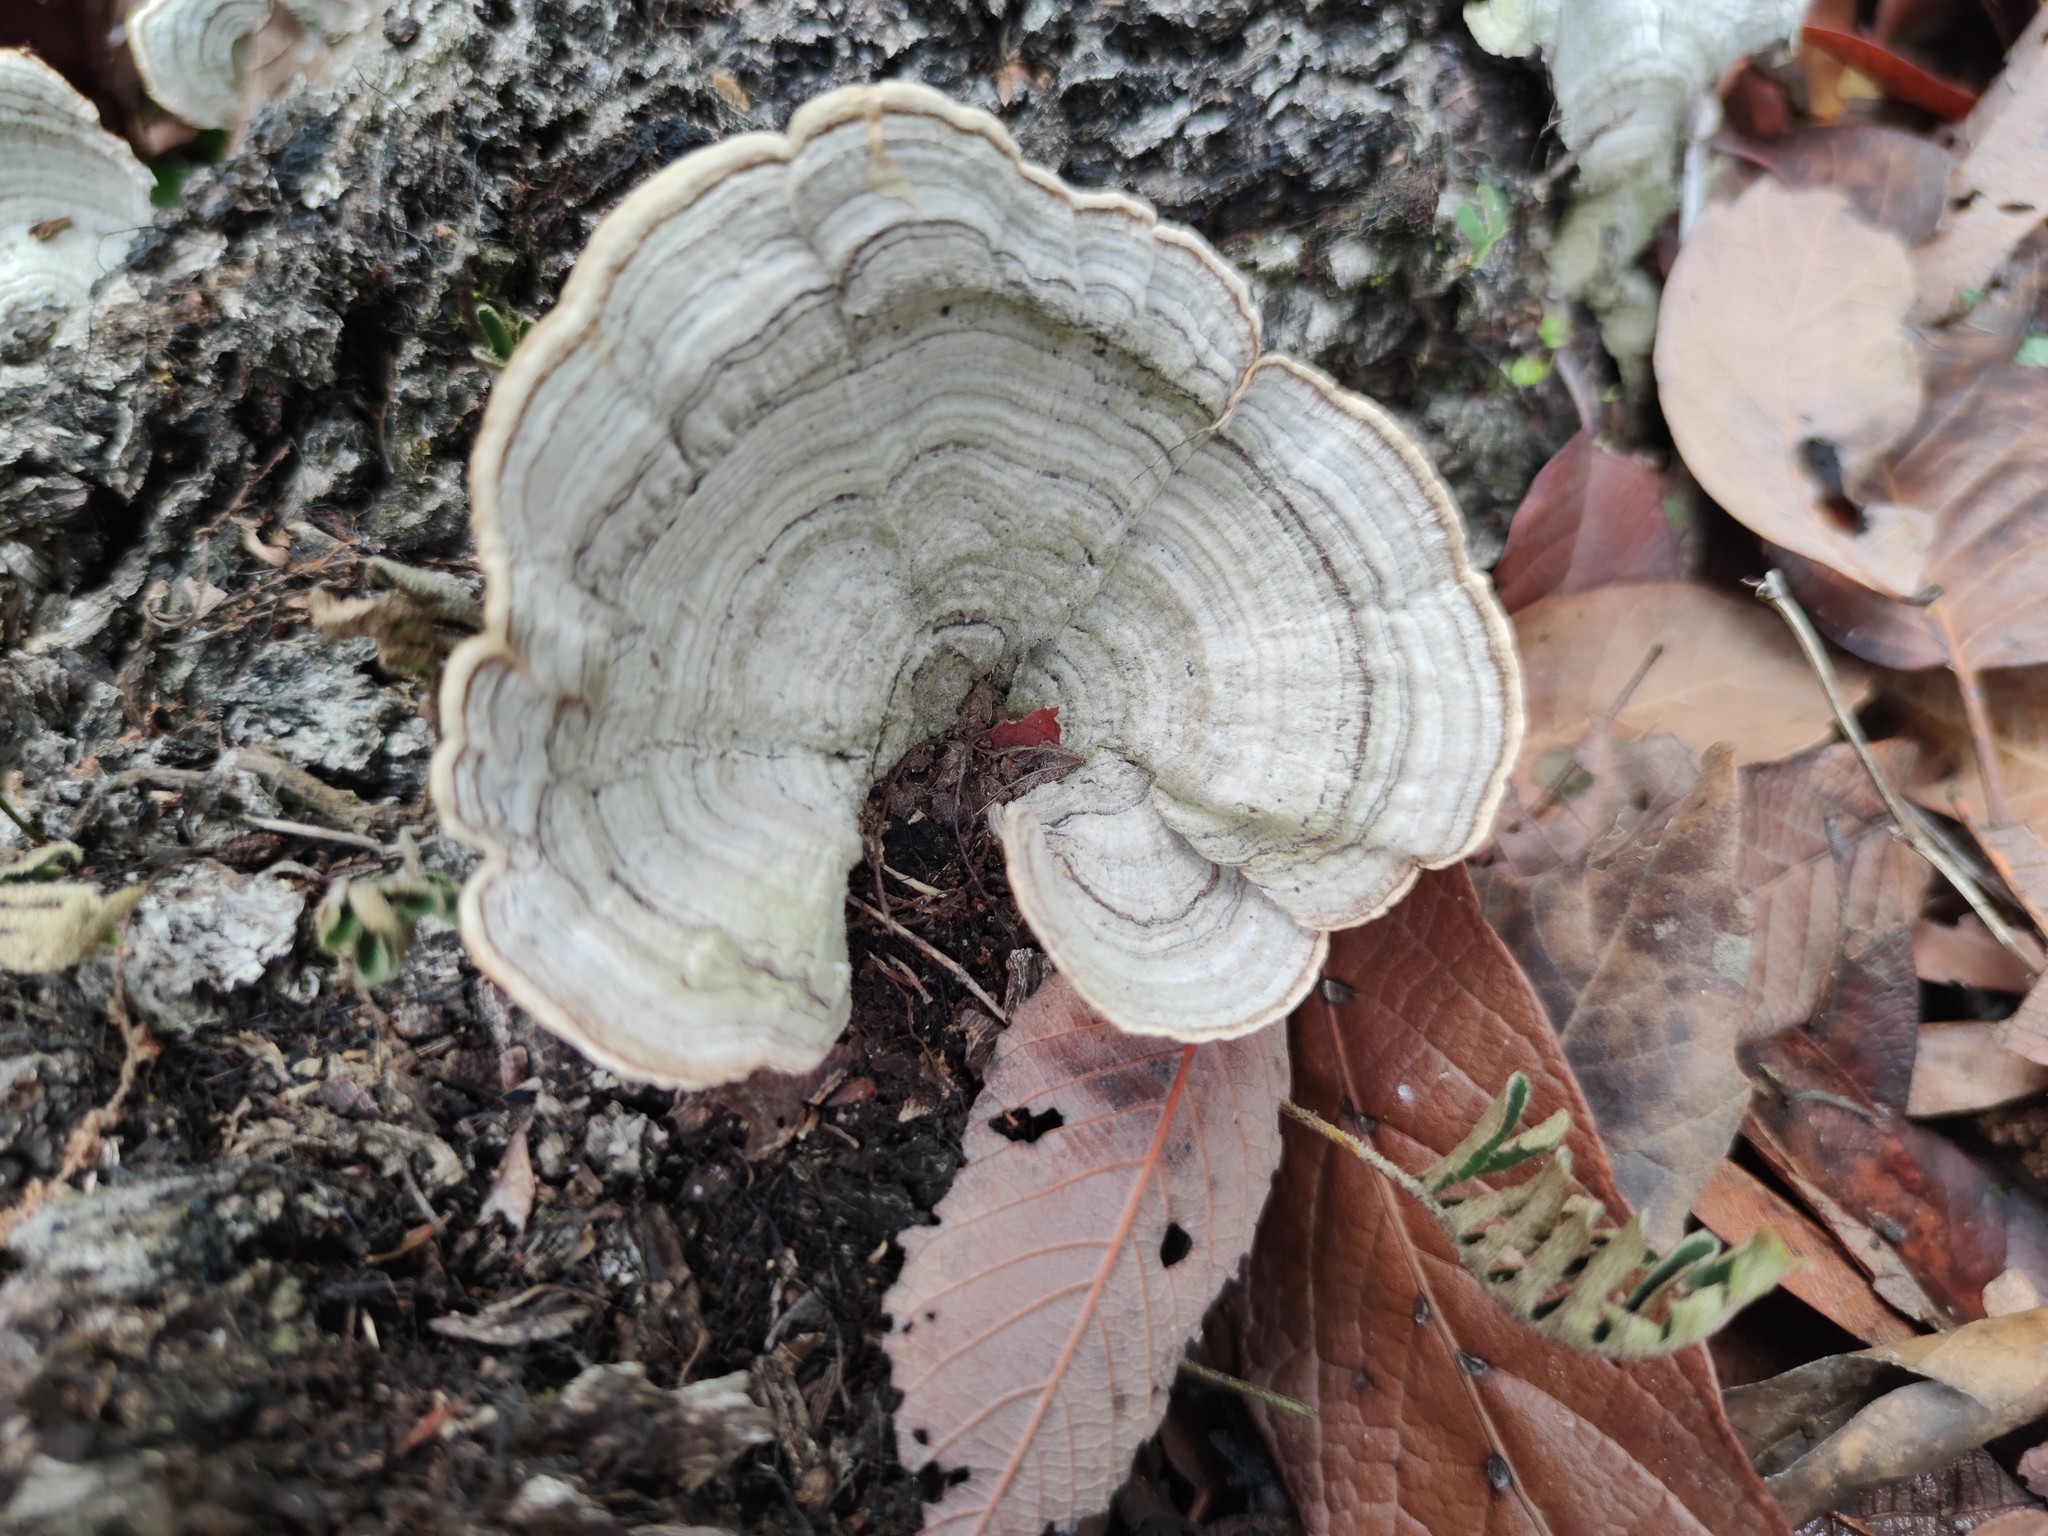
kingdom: Fungi
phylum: Basidiomycota
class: Agaricomycetes
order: Russulales
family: Stereaceae
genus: Stereum
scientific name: Stereum lobatum
